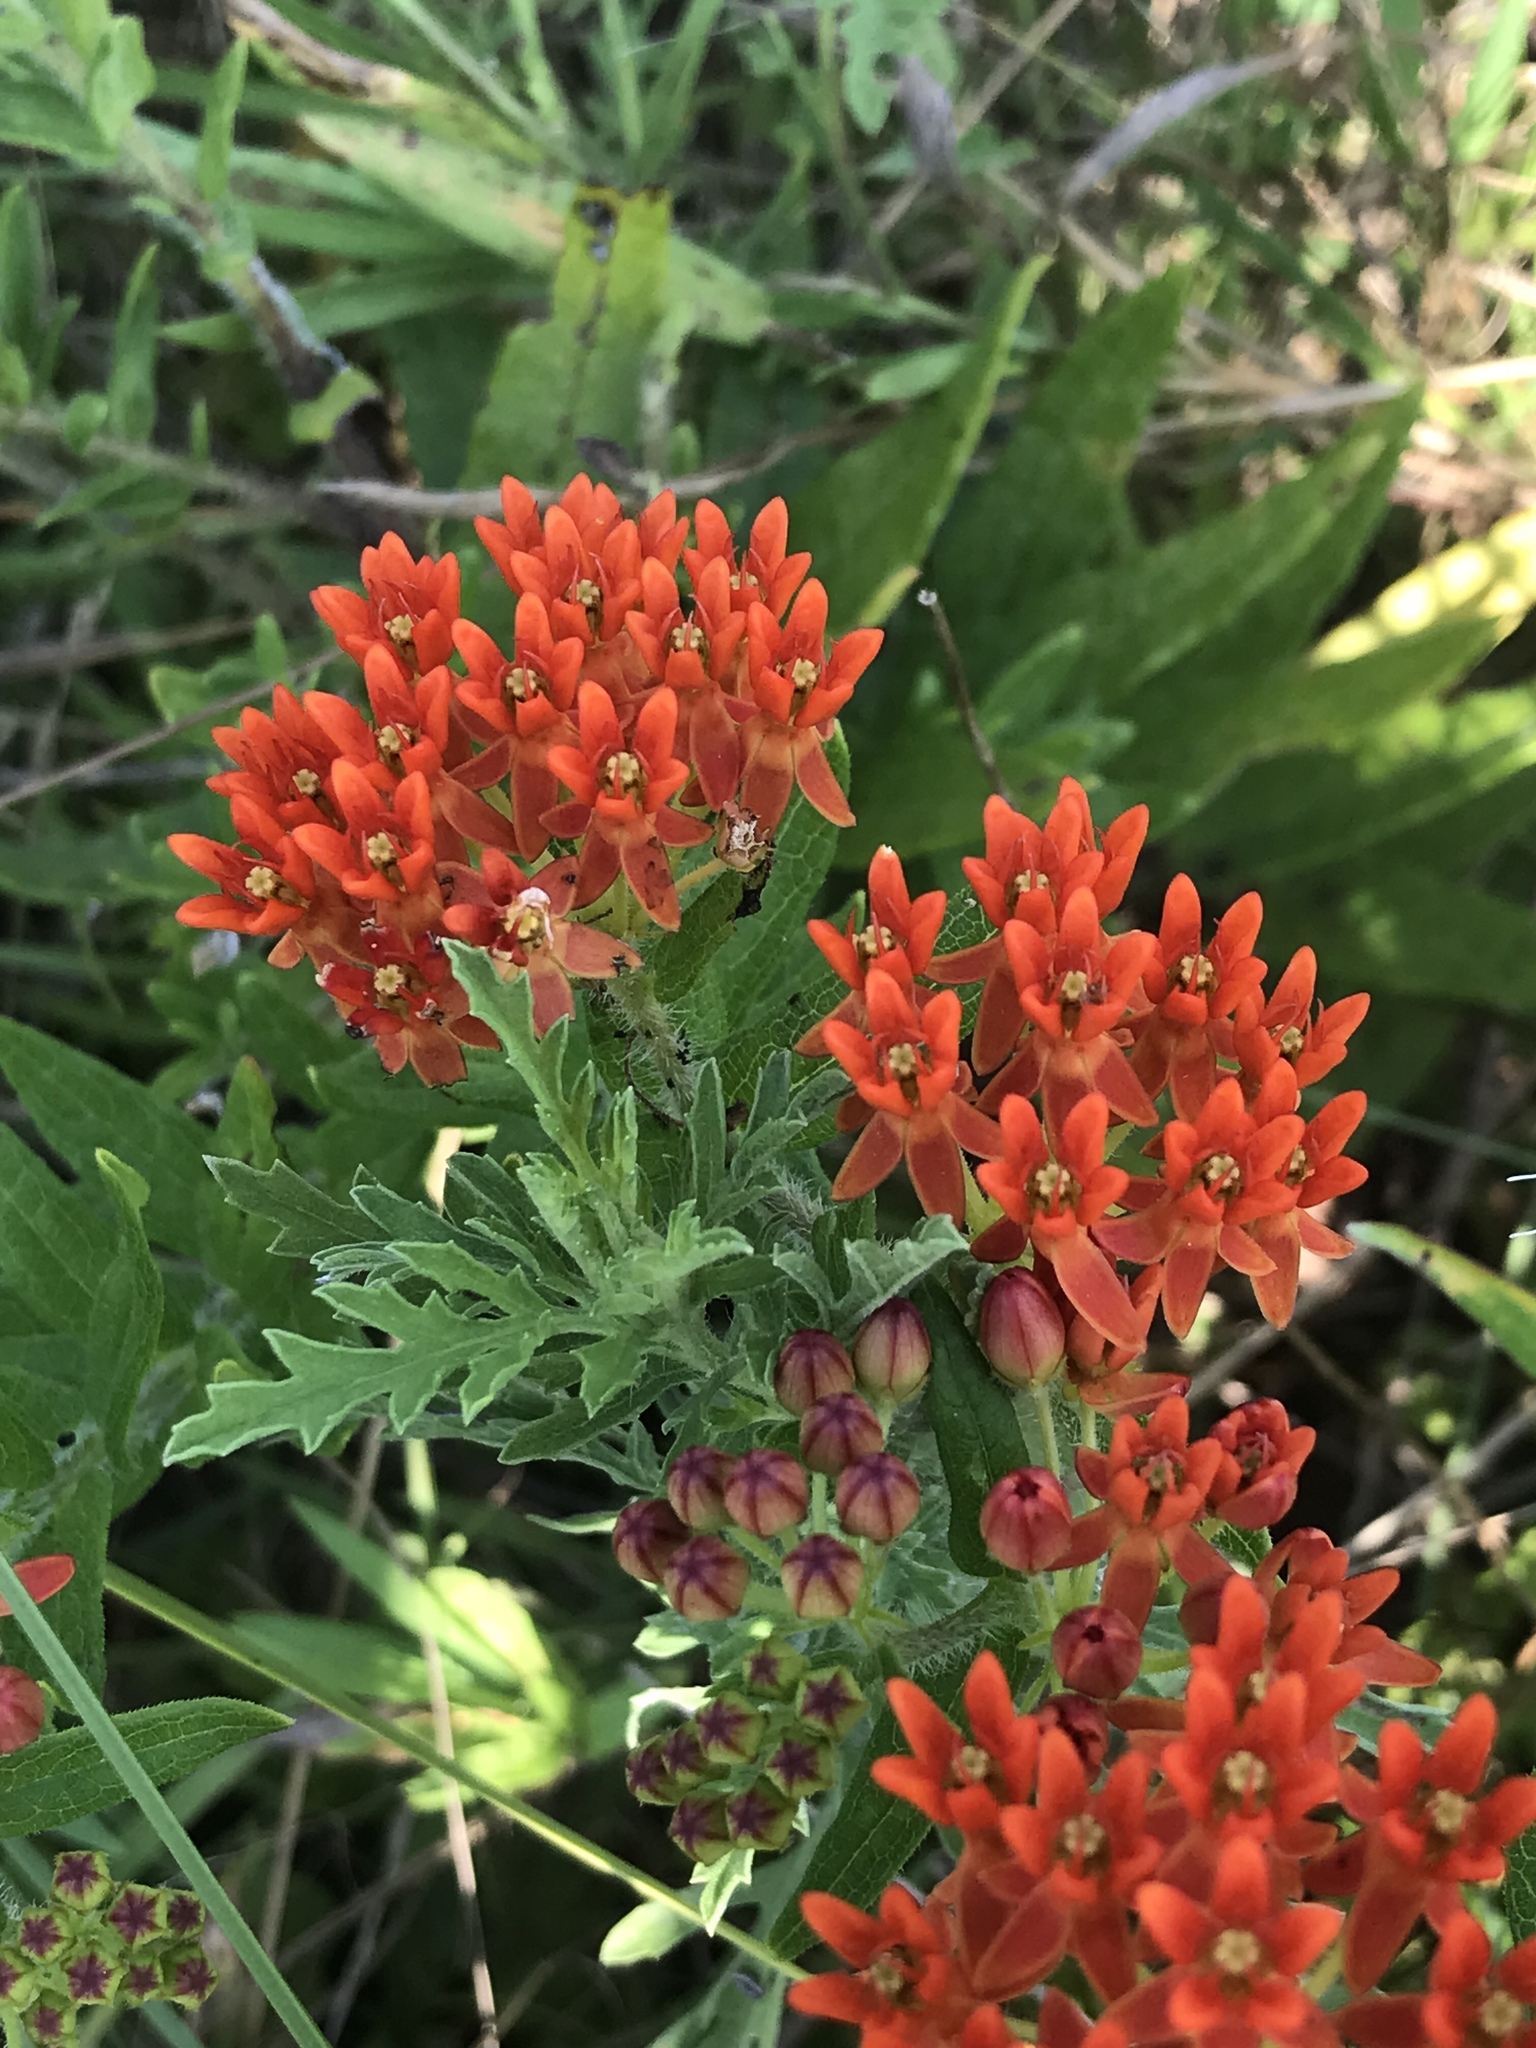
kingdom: Plantae
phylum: Tracheophyta
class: Magnoliopsida
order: Gentianales
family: Apocynaceae
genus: Asclepias
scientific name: Asclepias tuberosa
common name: Butterfly milkweed
